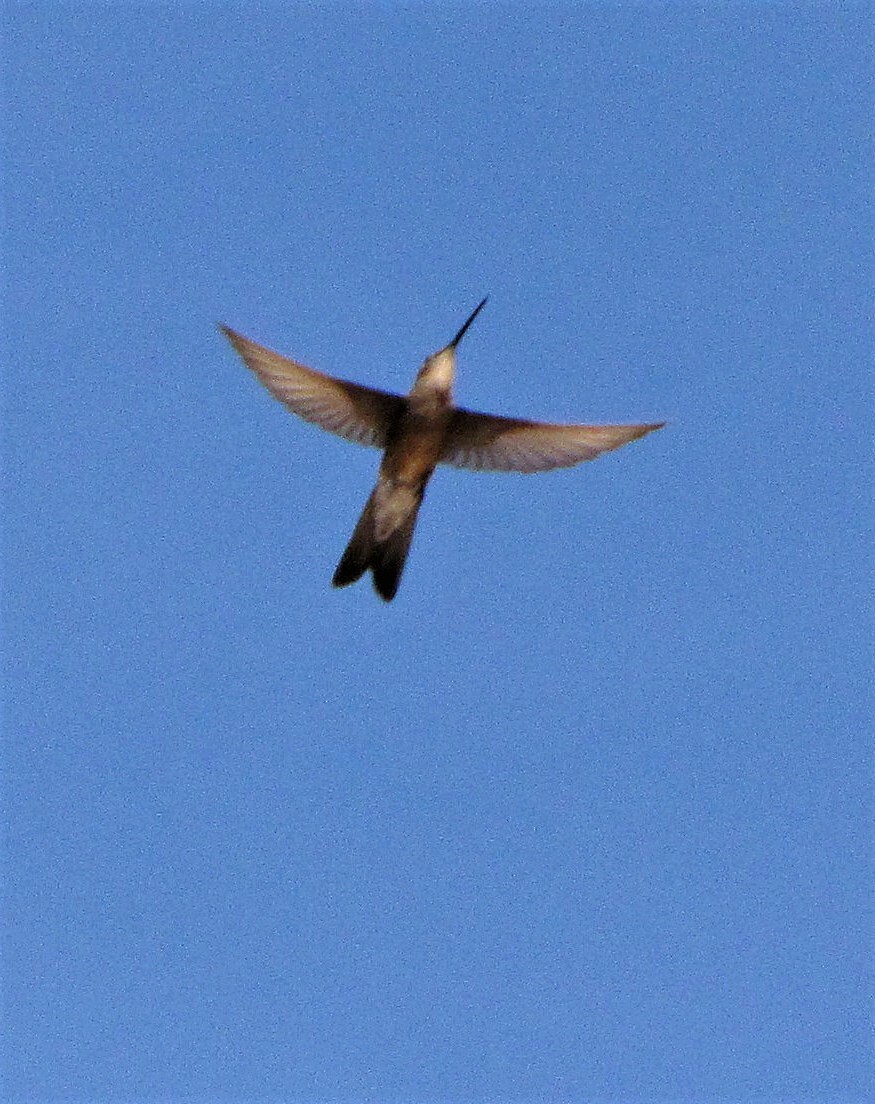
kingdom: Animalia
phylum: Chordata
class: Aves
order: Apodiformes
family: Trochilidae
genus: Patagona
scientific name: Patagona gigas
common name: Giant hummingbird
